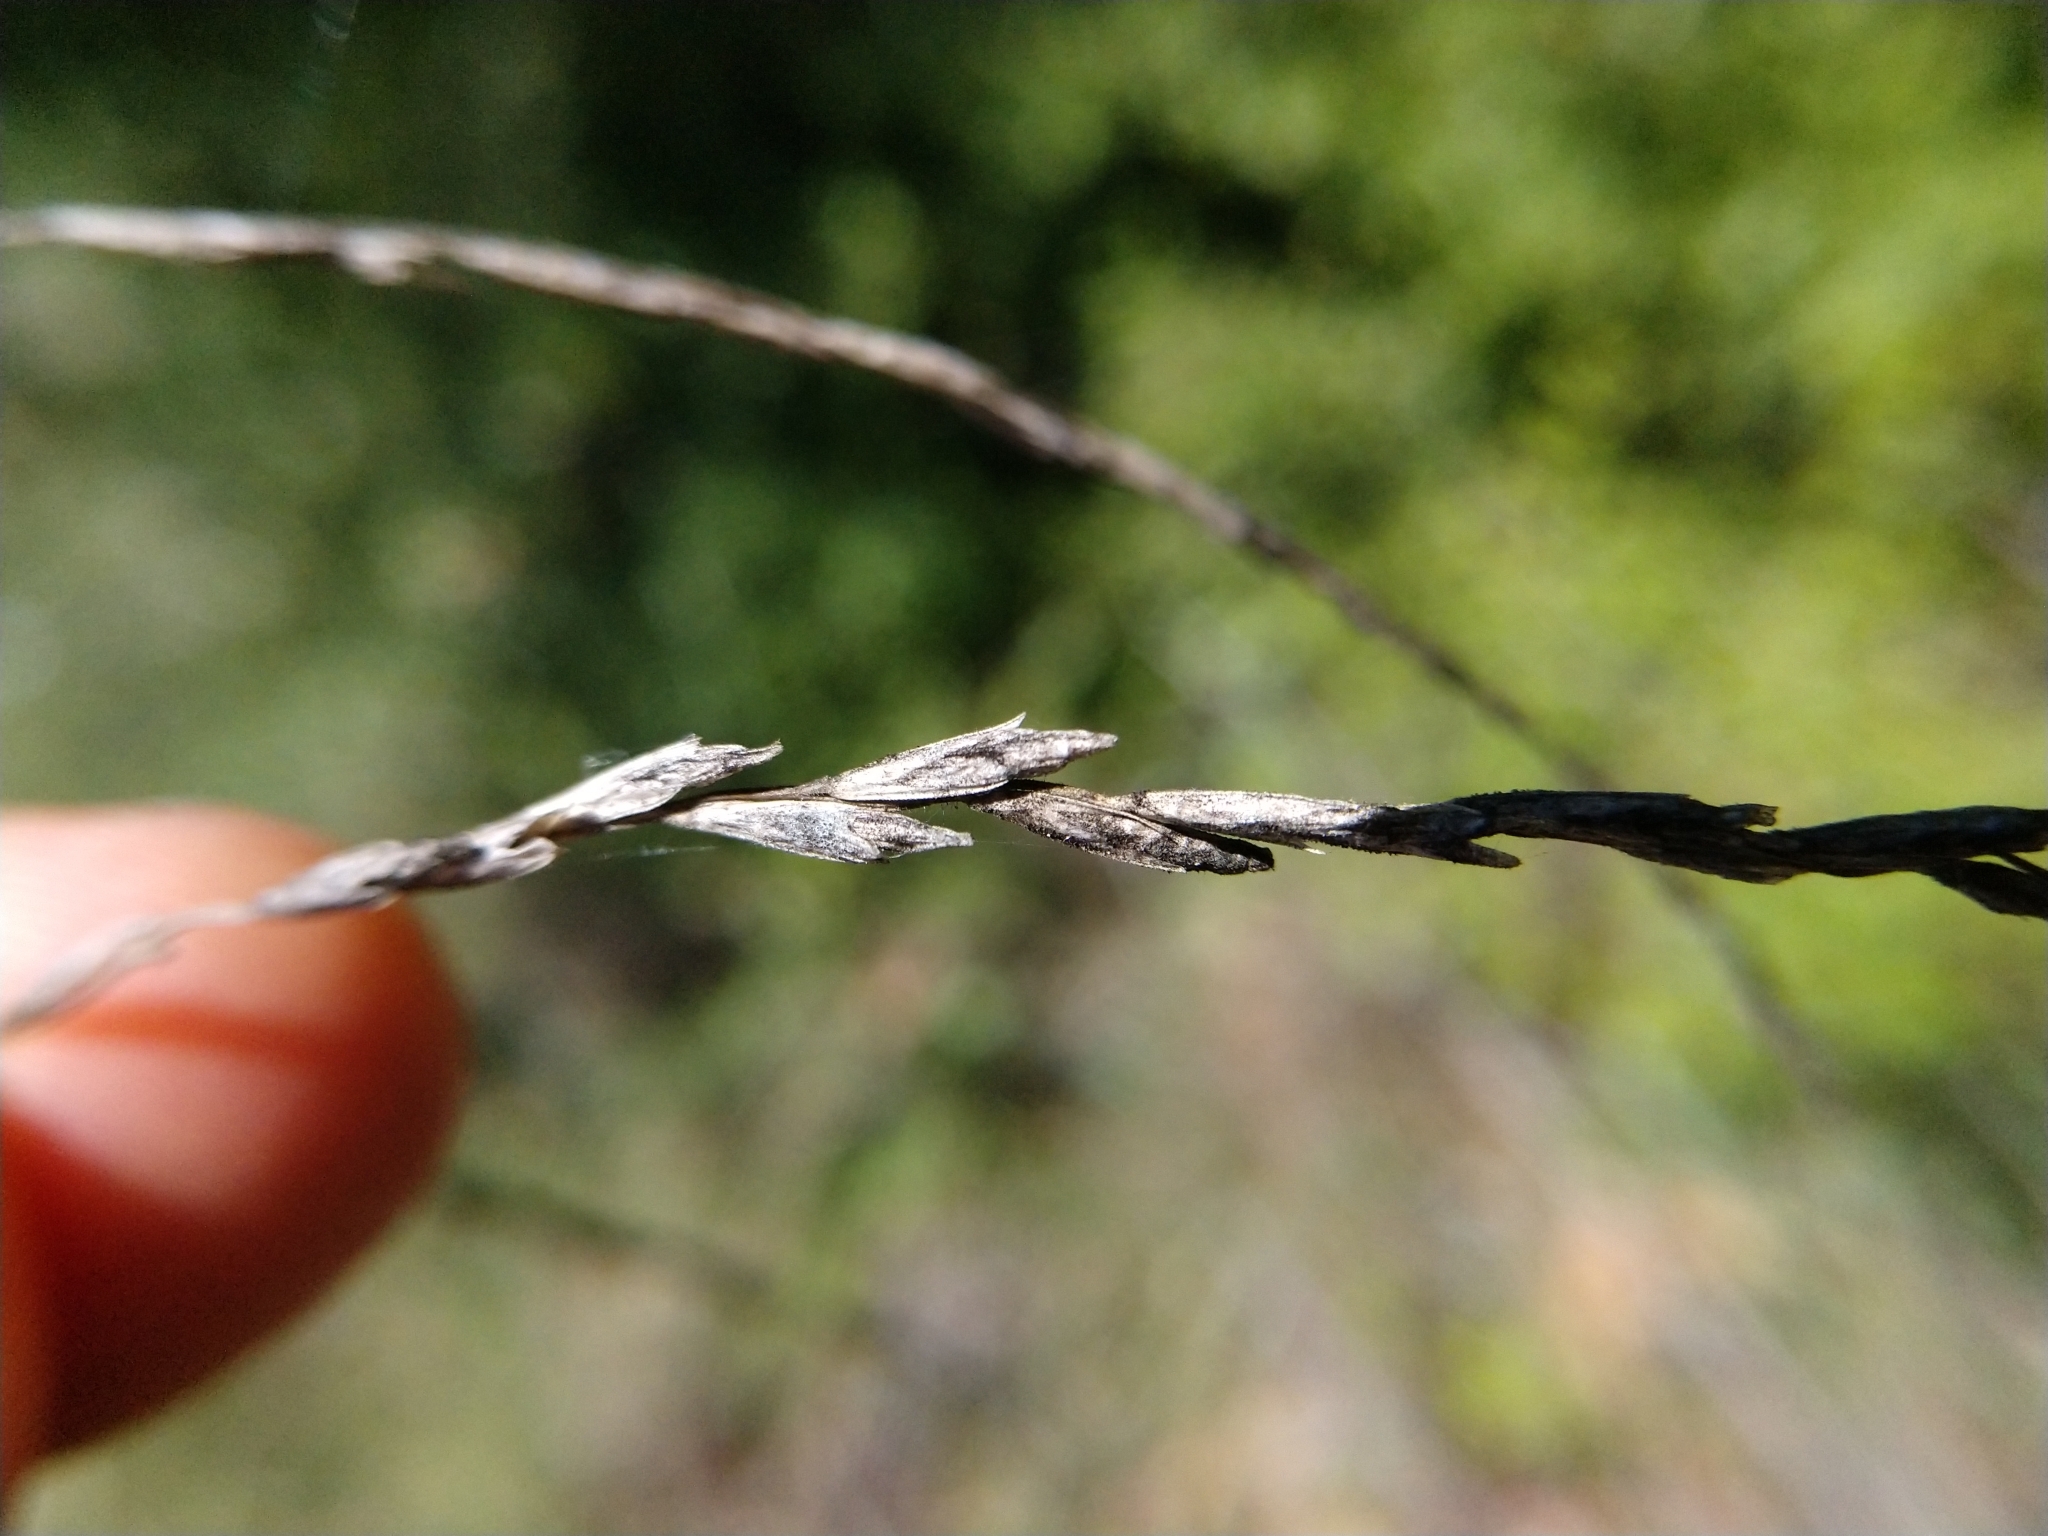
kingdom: Plantae
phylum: Tracheophyta
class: Liliopsida
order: Poales
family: Poaceae
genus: Disakisperma
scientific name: Disakisperma dubium
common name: Green sprangletop
